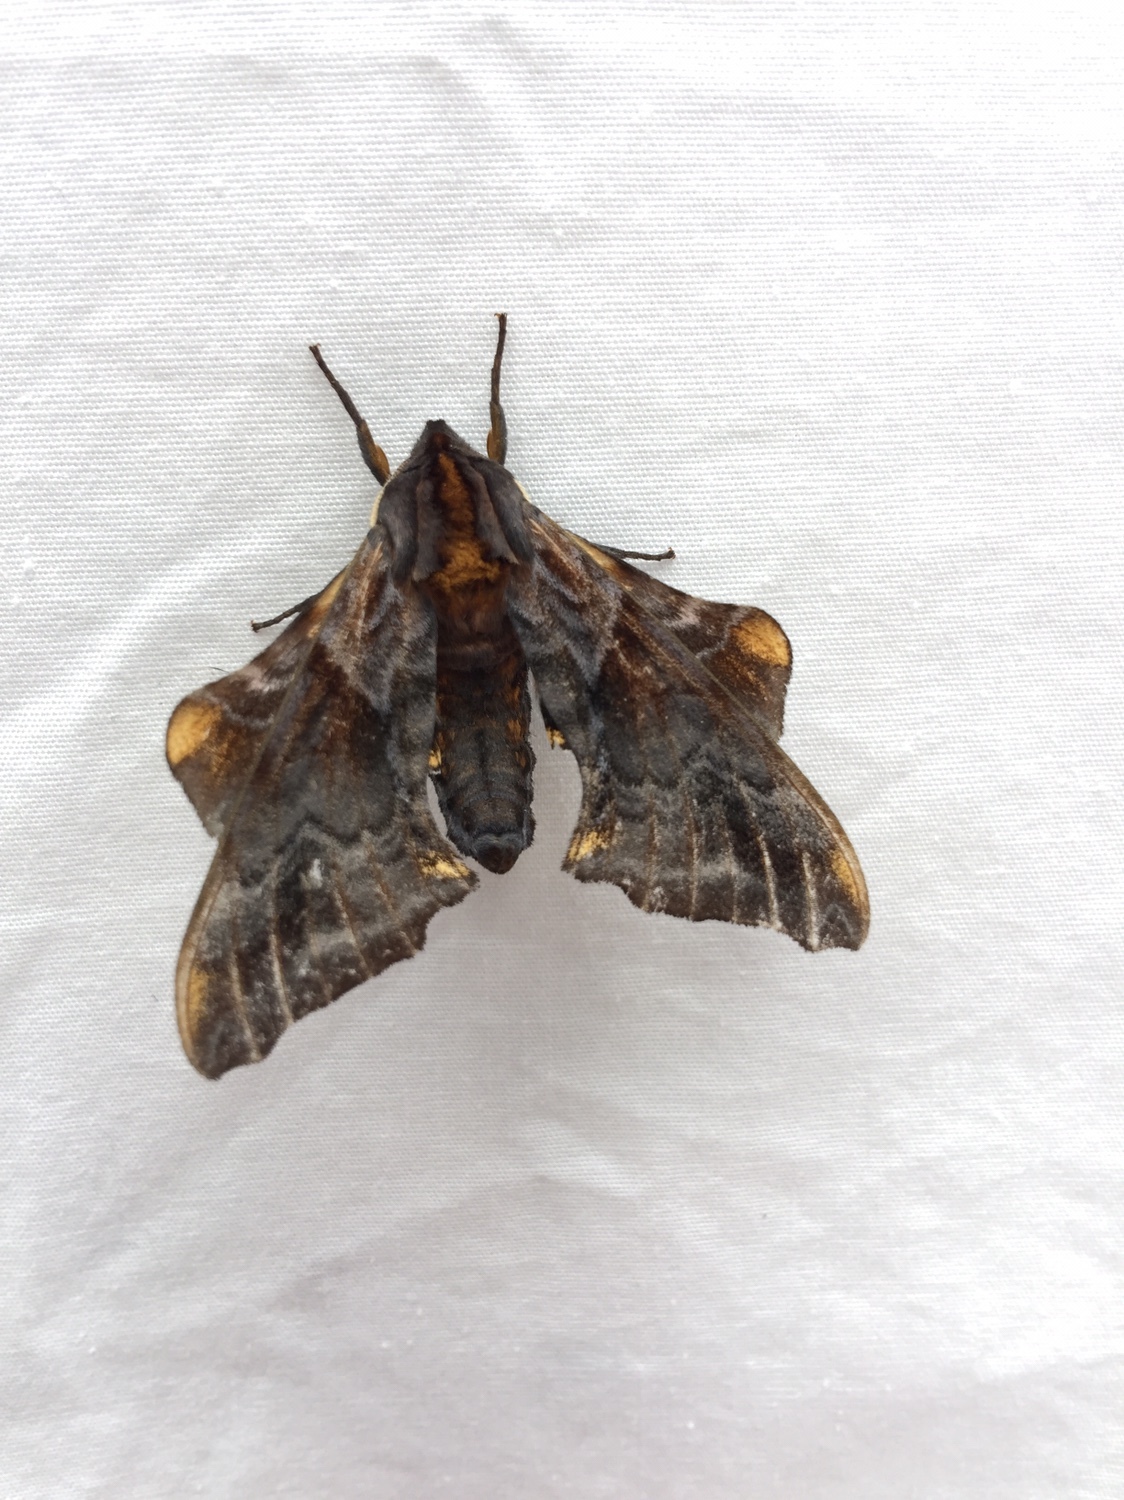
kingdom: Animalia
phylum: Arthropoda
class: Insecta
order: Lepidoptera
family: Sphingidae
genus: Paonias
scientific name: Paonias myops
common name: Small-eyed sphinx
